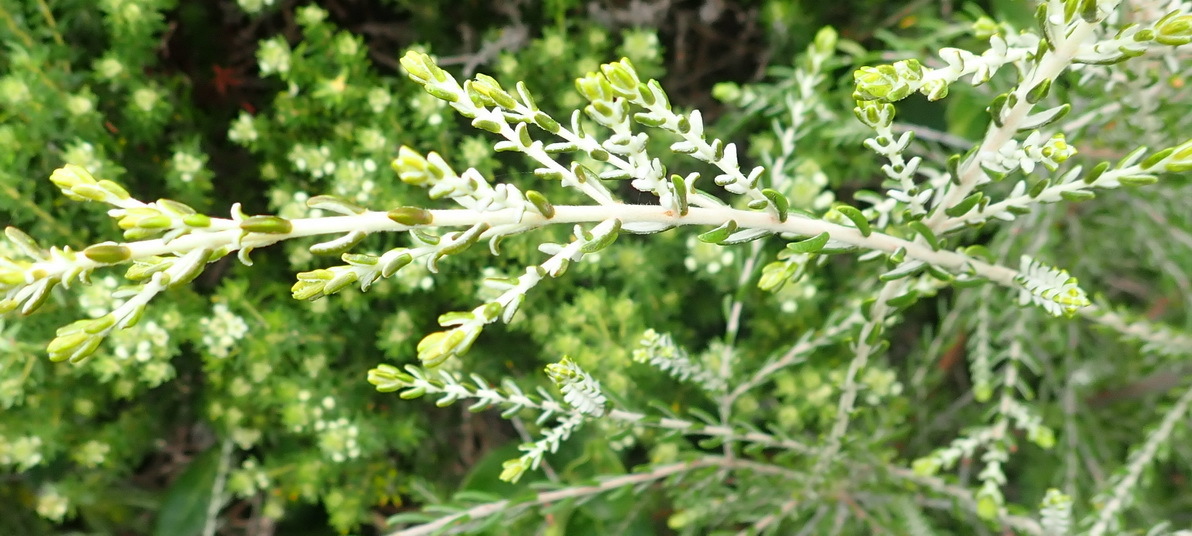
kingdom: Plantae
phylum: Tracheophyta
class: Magnoliopsida
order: Malvales
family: Thymelaeaceae
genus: Passerina
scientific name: Passerina galpinii
